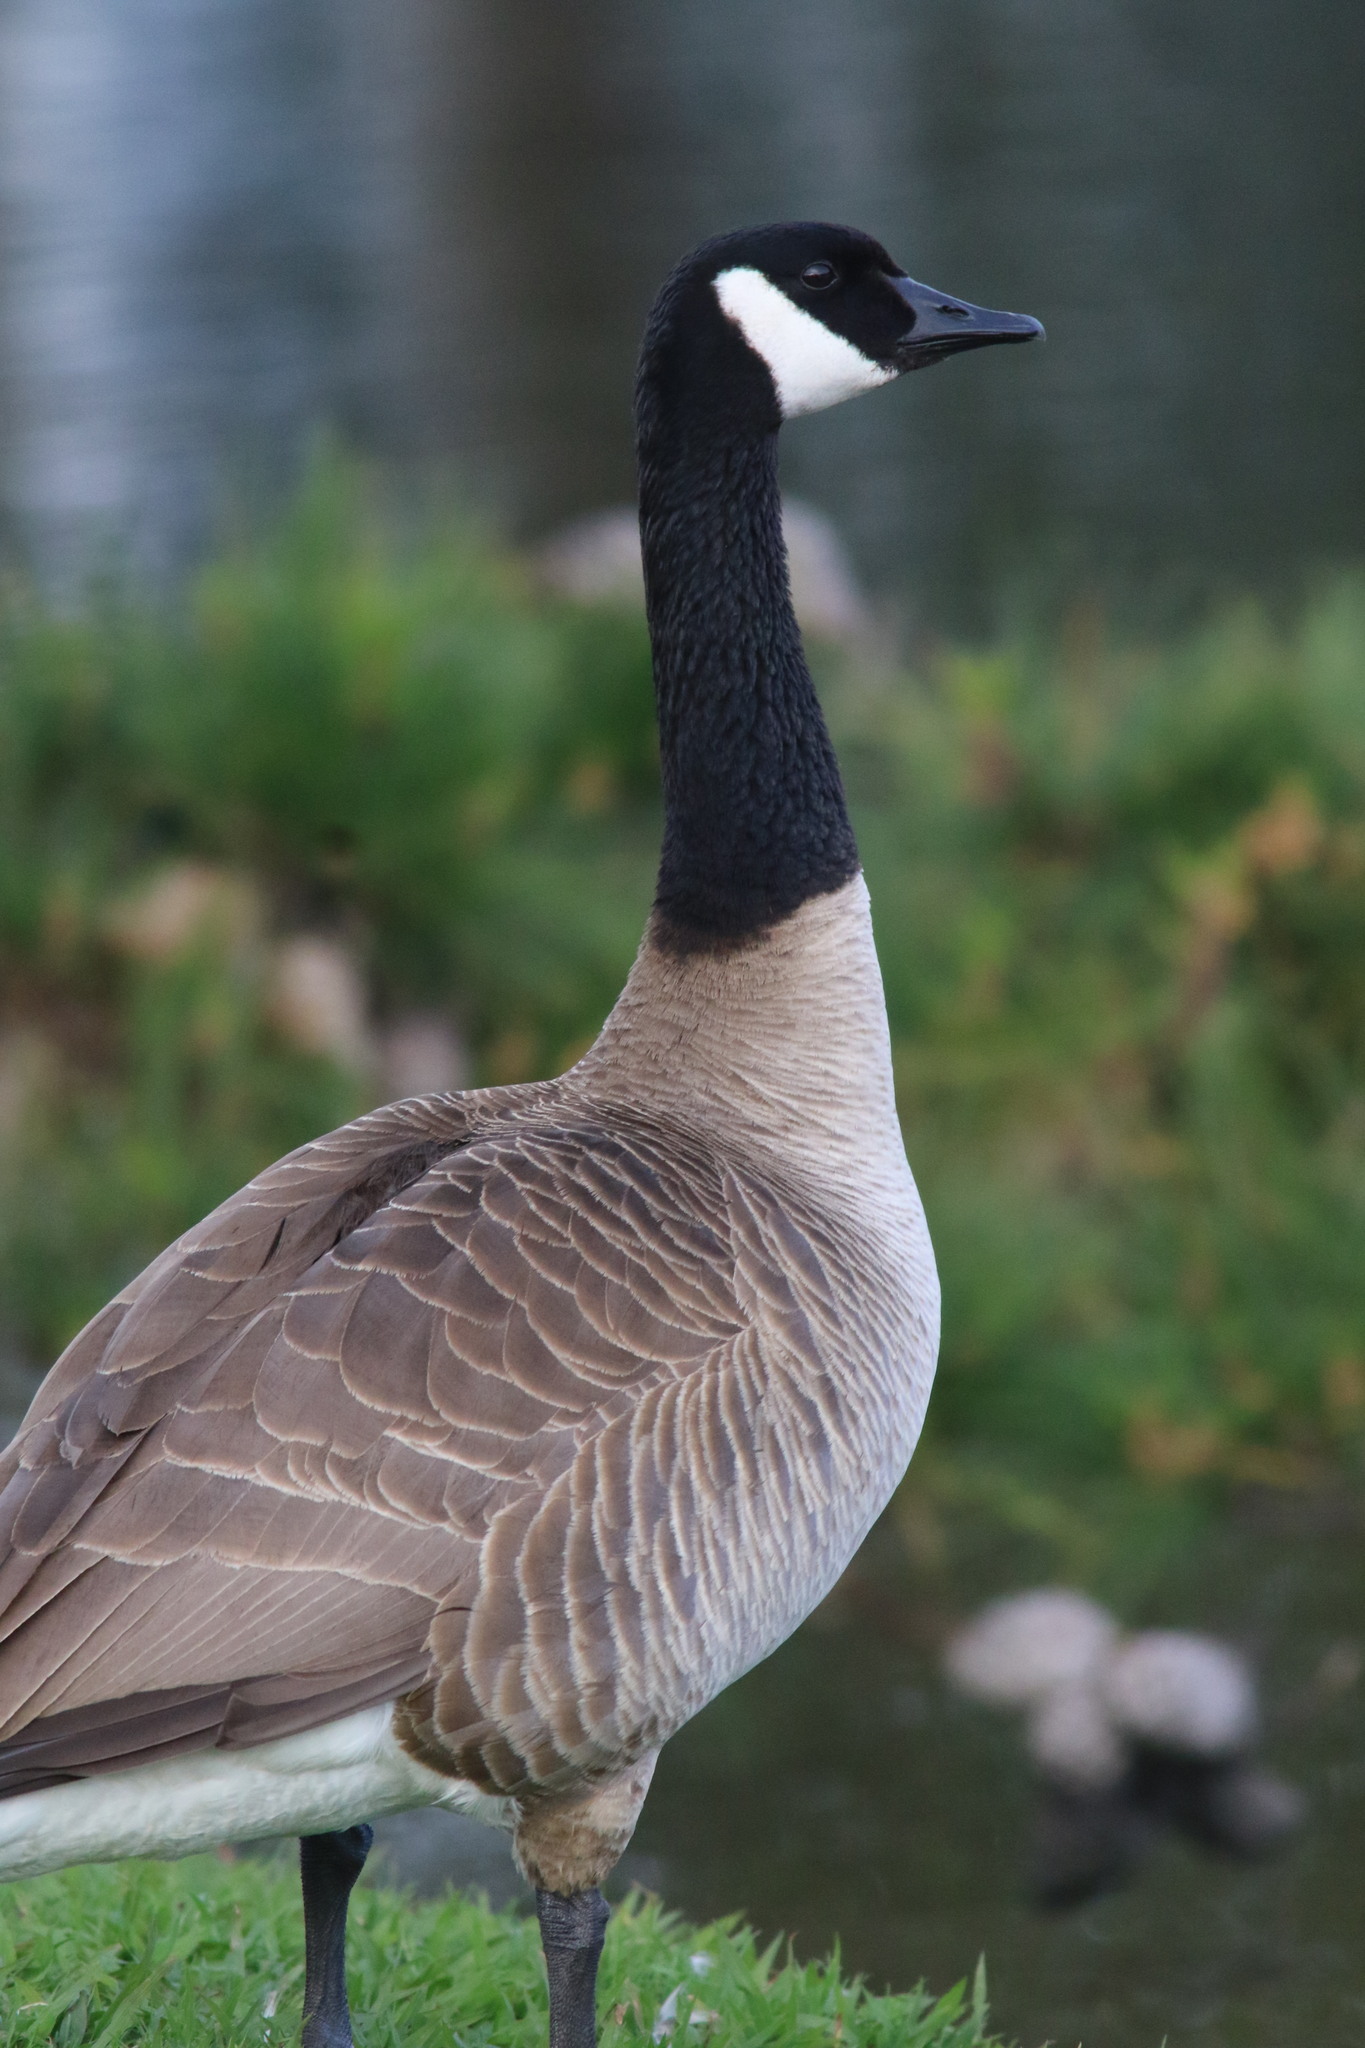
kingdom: Animalia
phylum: Chordata
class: Aves
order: Anseriformes
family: Anatidae
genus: Branta
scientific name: Branta canadensis
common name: Canada goose
